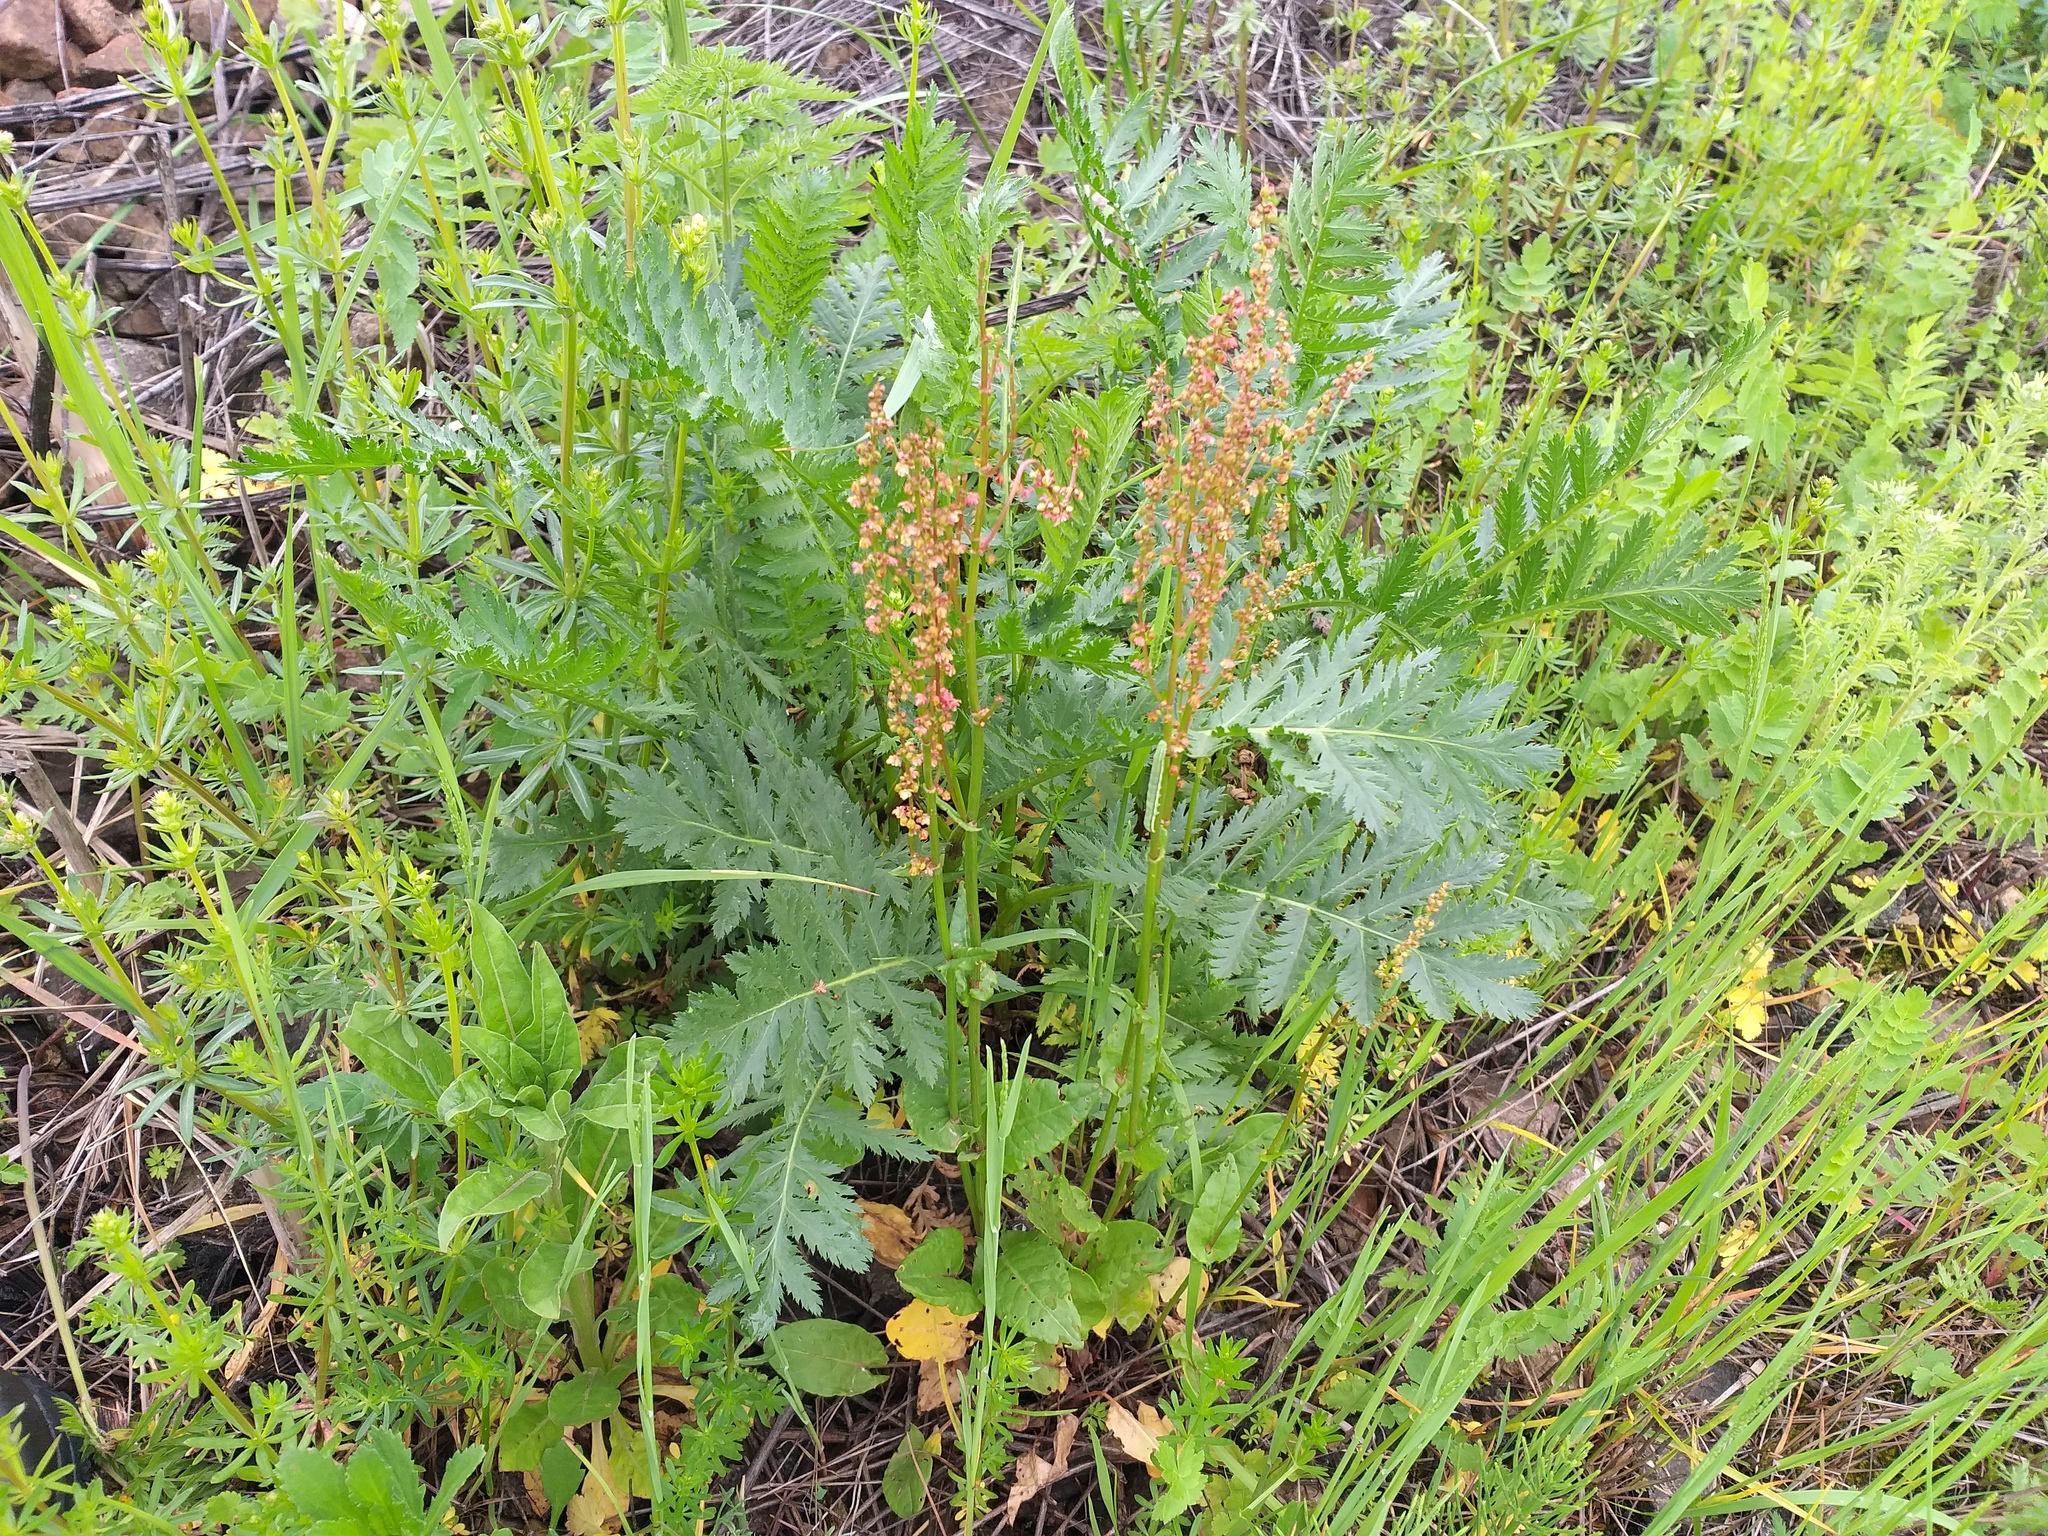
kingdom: Plantae
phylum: Tracheophyta
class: Magnoliopsida
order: Caryophyllales
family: Polygonaceae
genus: Rumex
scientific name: Rumex acetosa
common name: Garden sorrel
